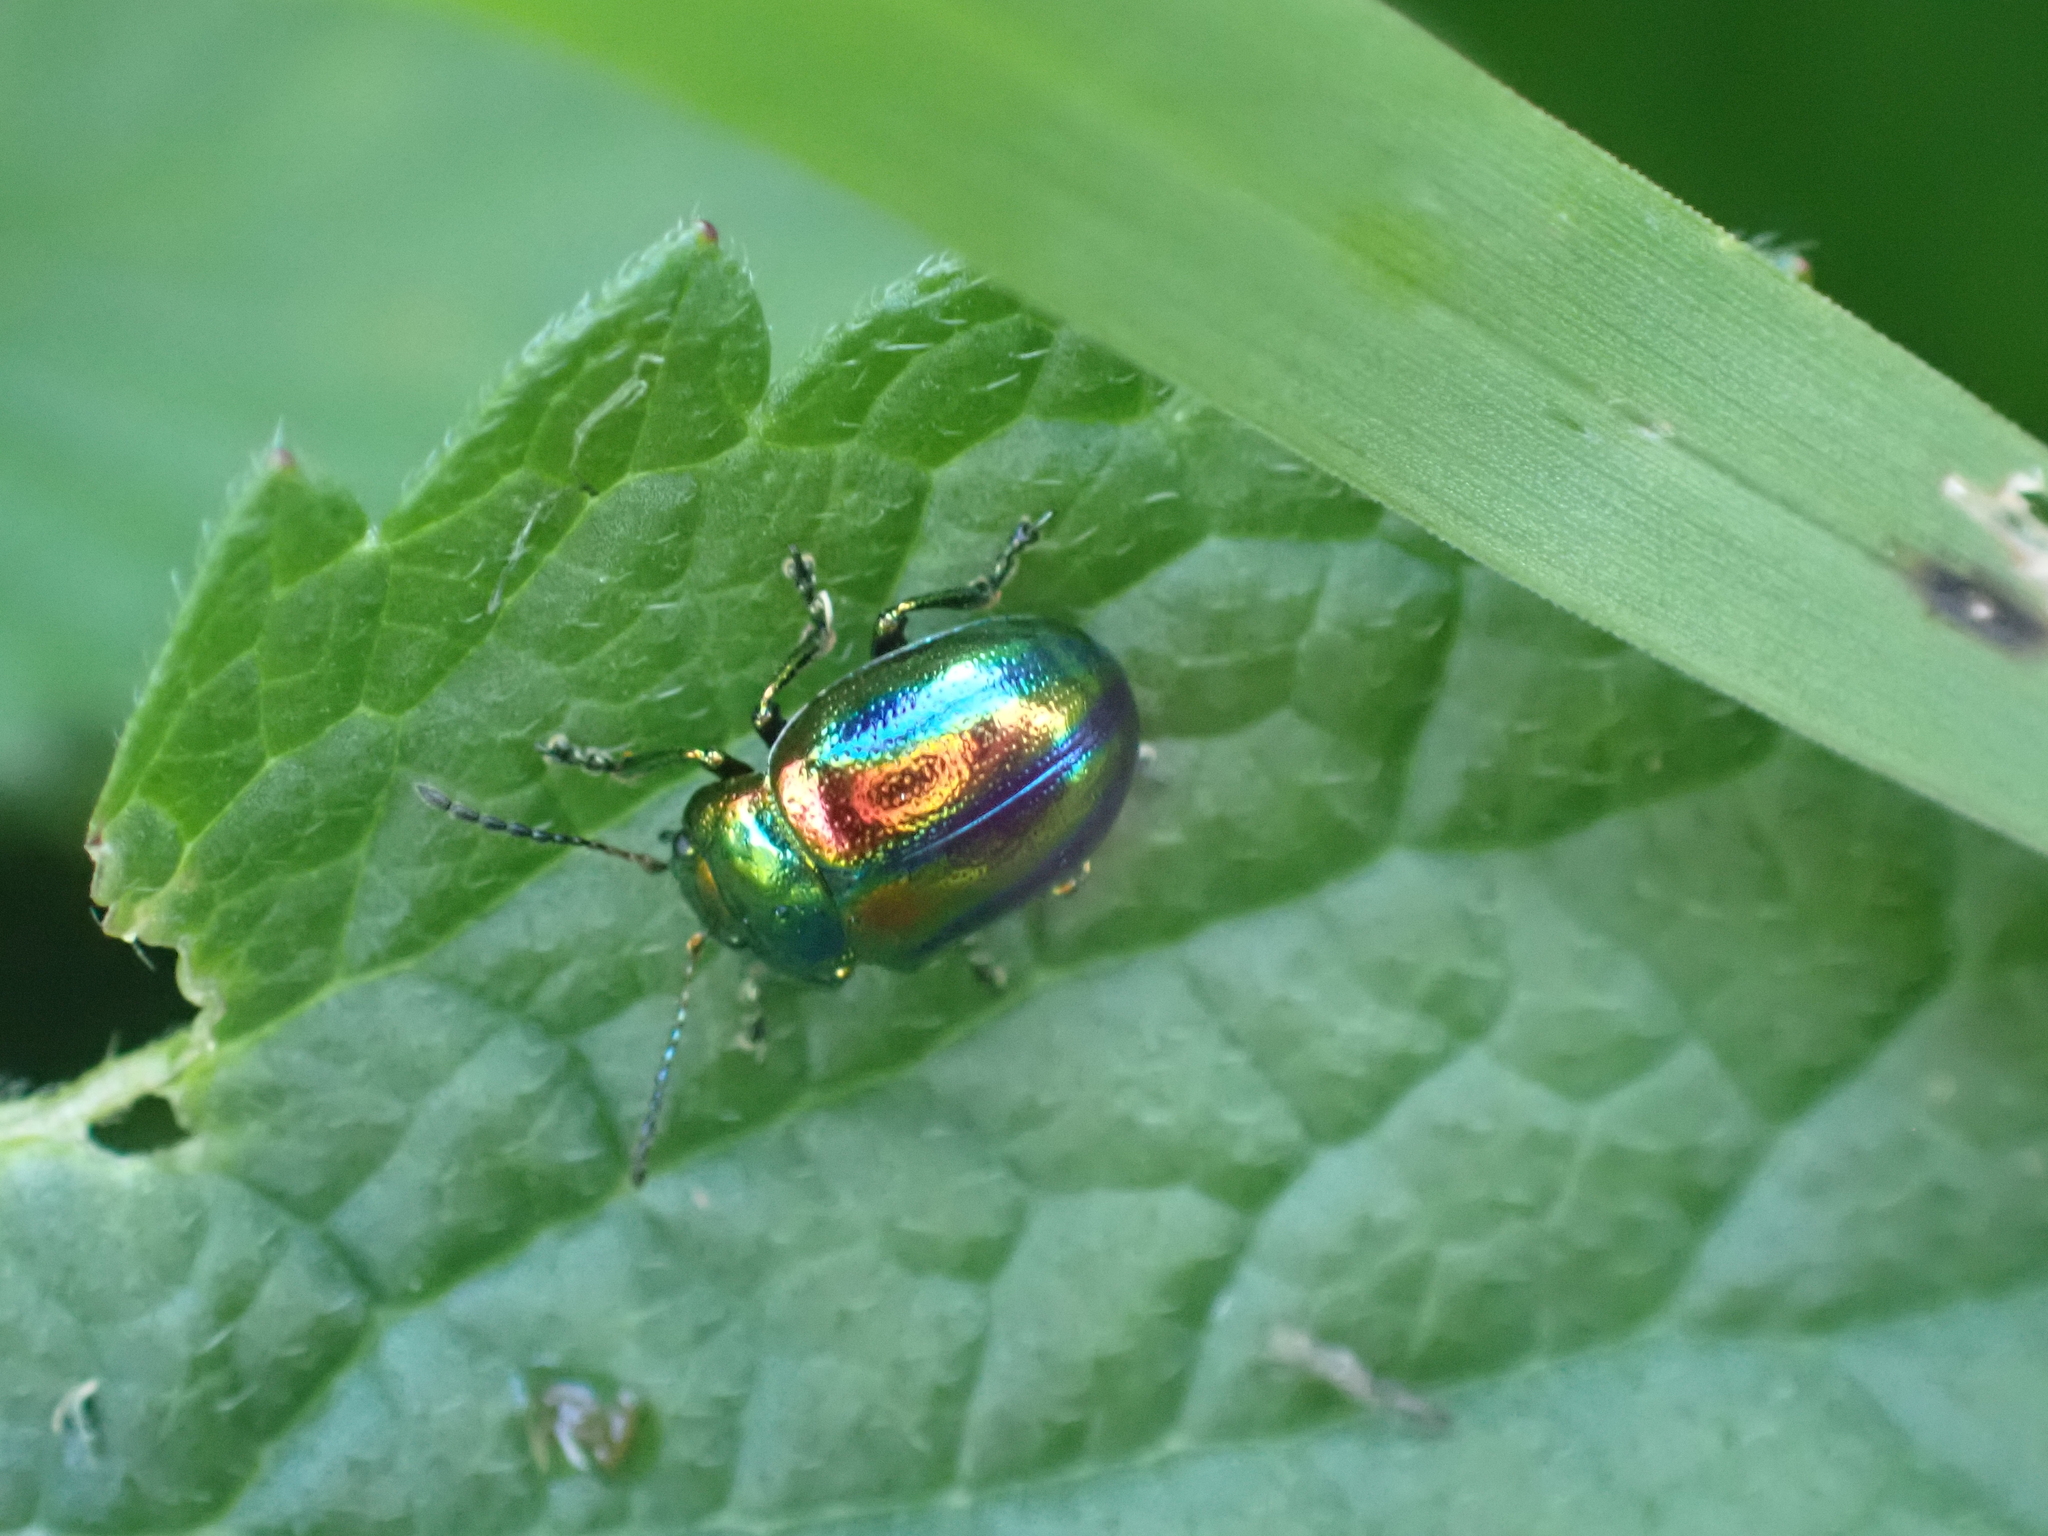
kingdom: Animalia
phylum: Arthropoda
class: Insecta
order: Coleoptera
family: Chrysomelidae
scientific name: Chrysomelidae
